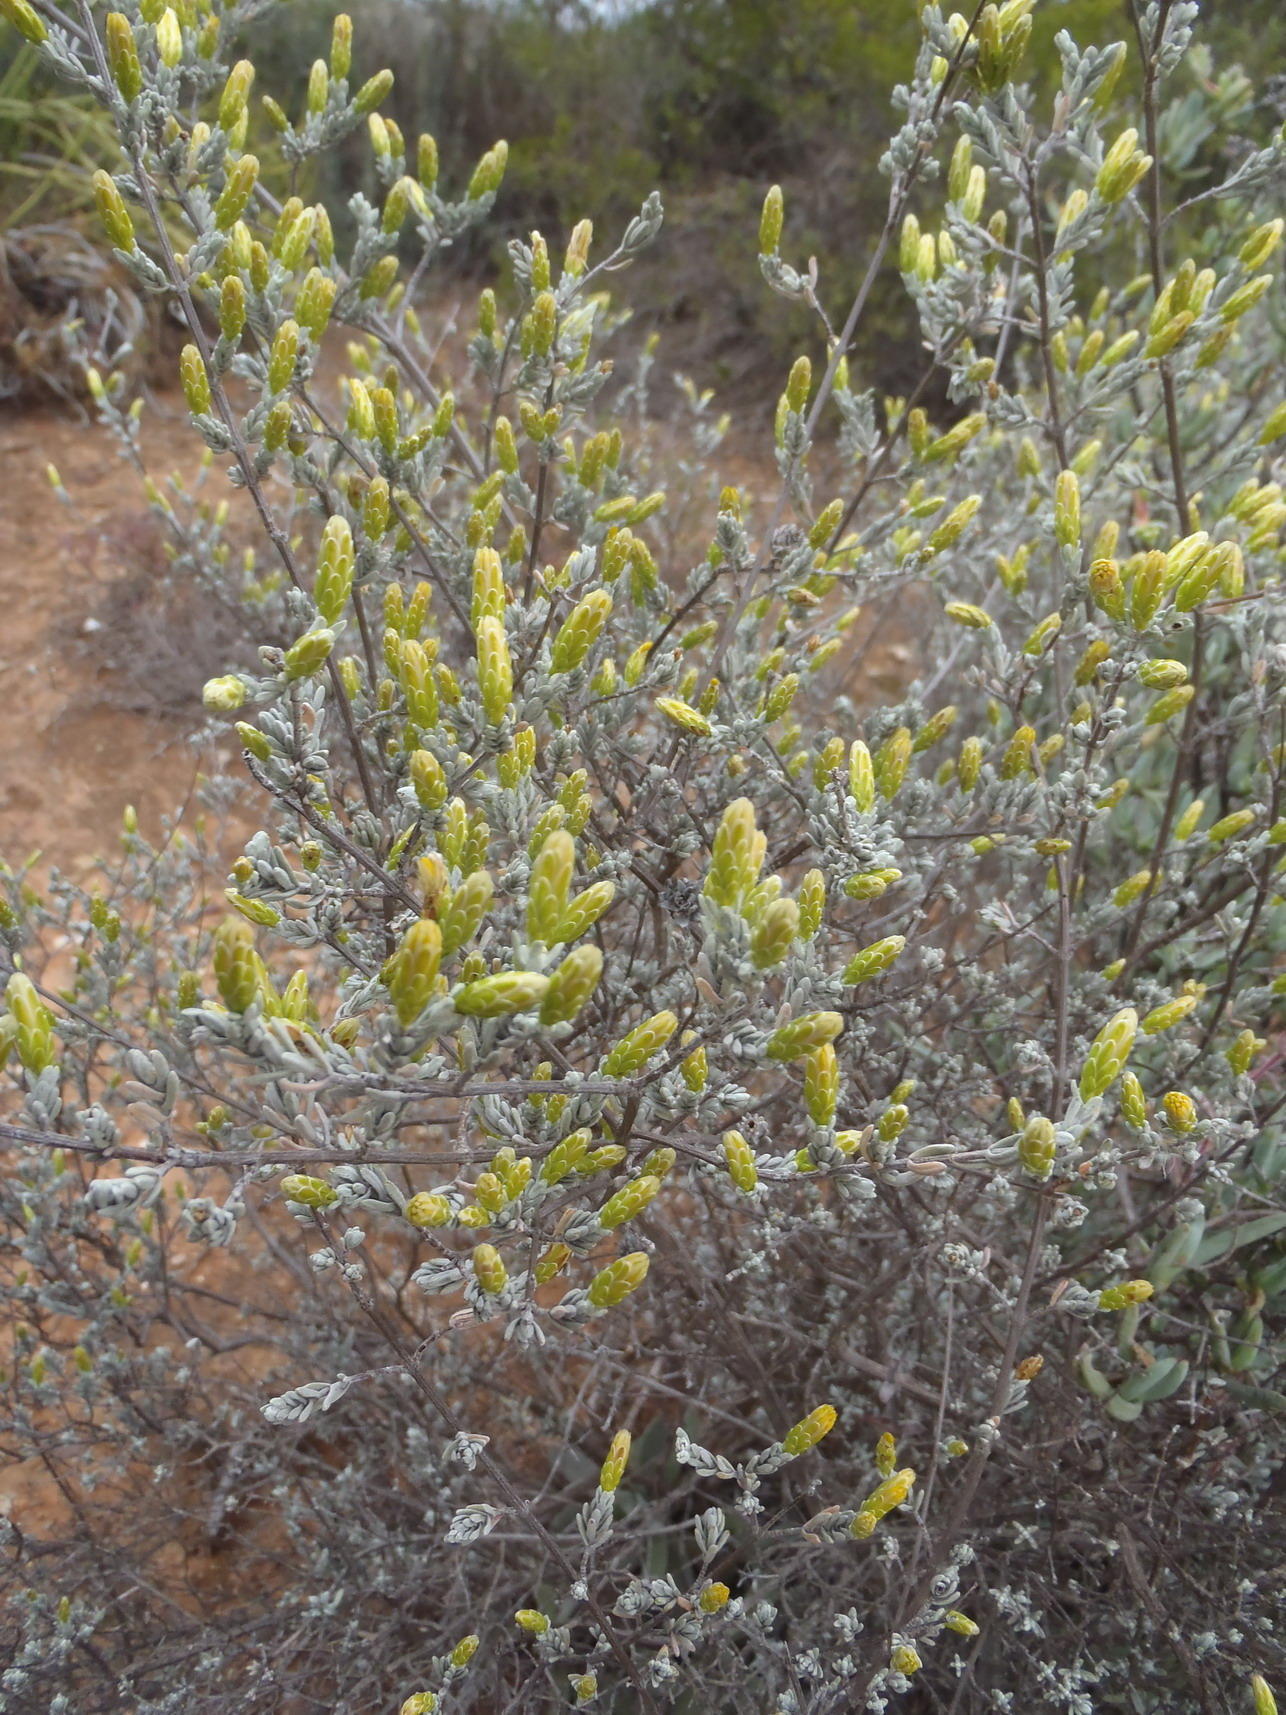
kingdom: Plantae
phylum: Tracheophyta
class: Magnoliopsida
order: Asterales
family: Asteraceae
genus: Pteronia
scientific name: Pteronia incana
